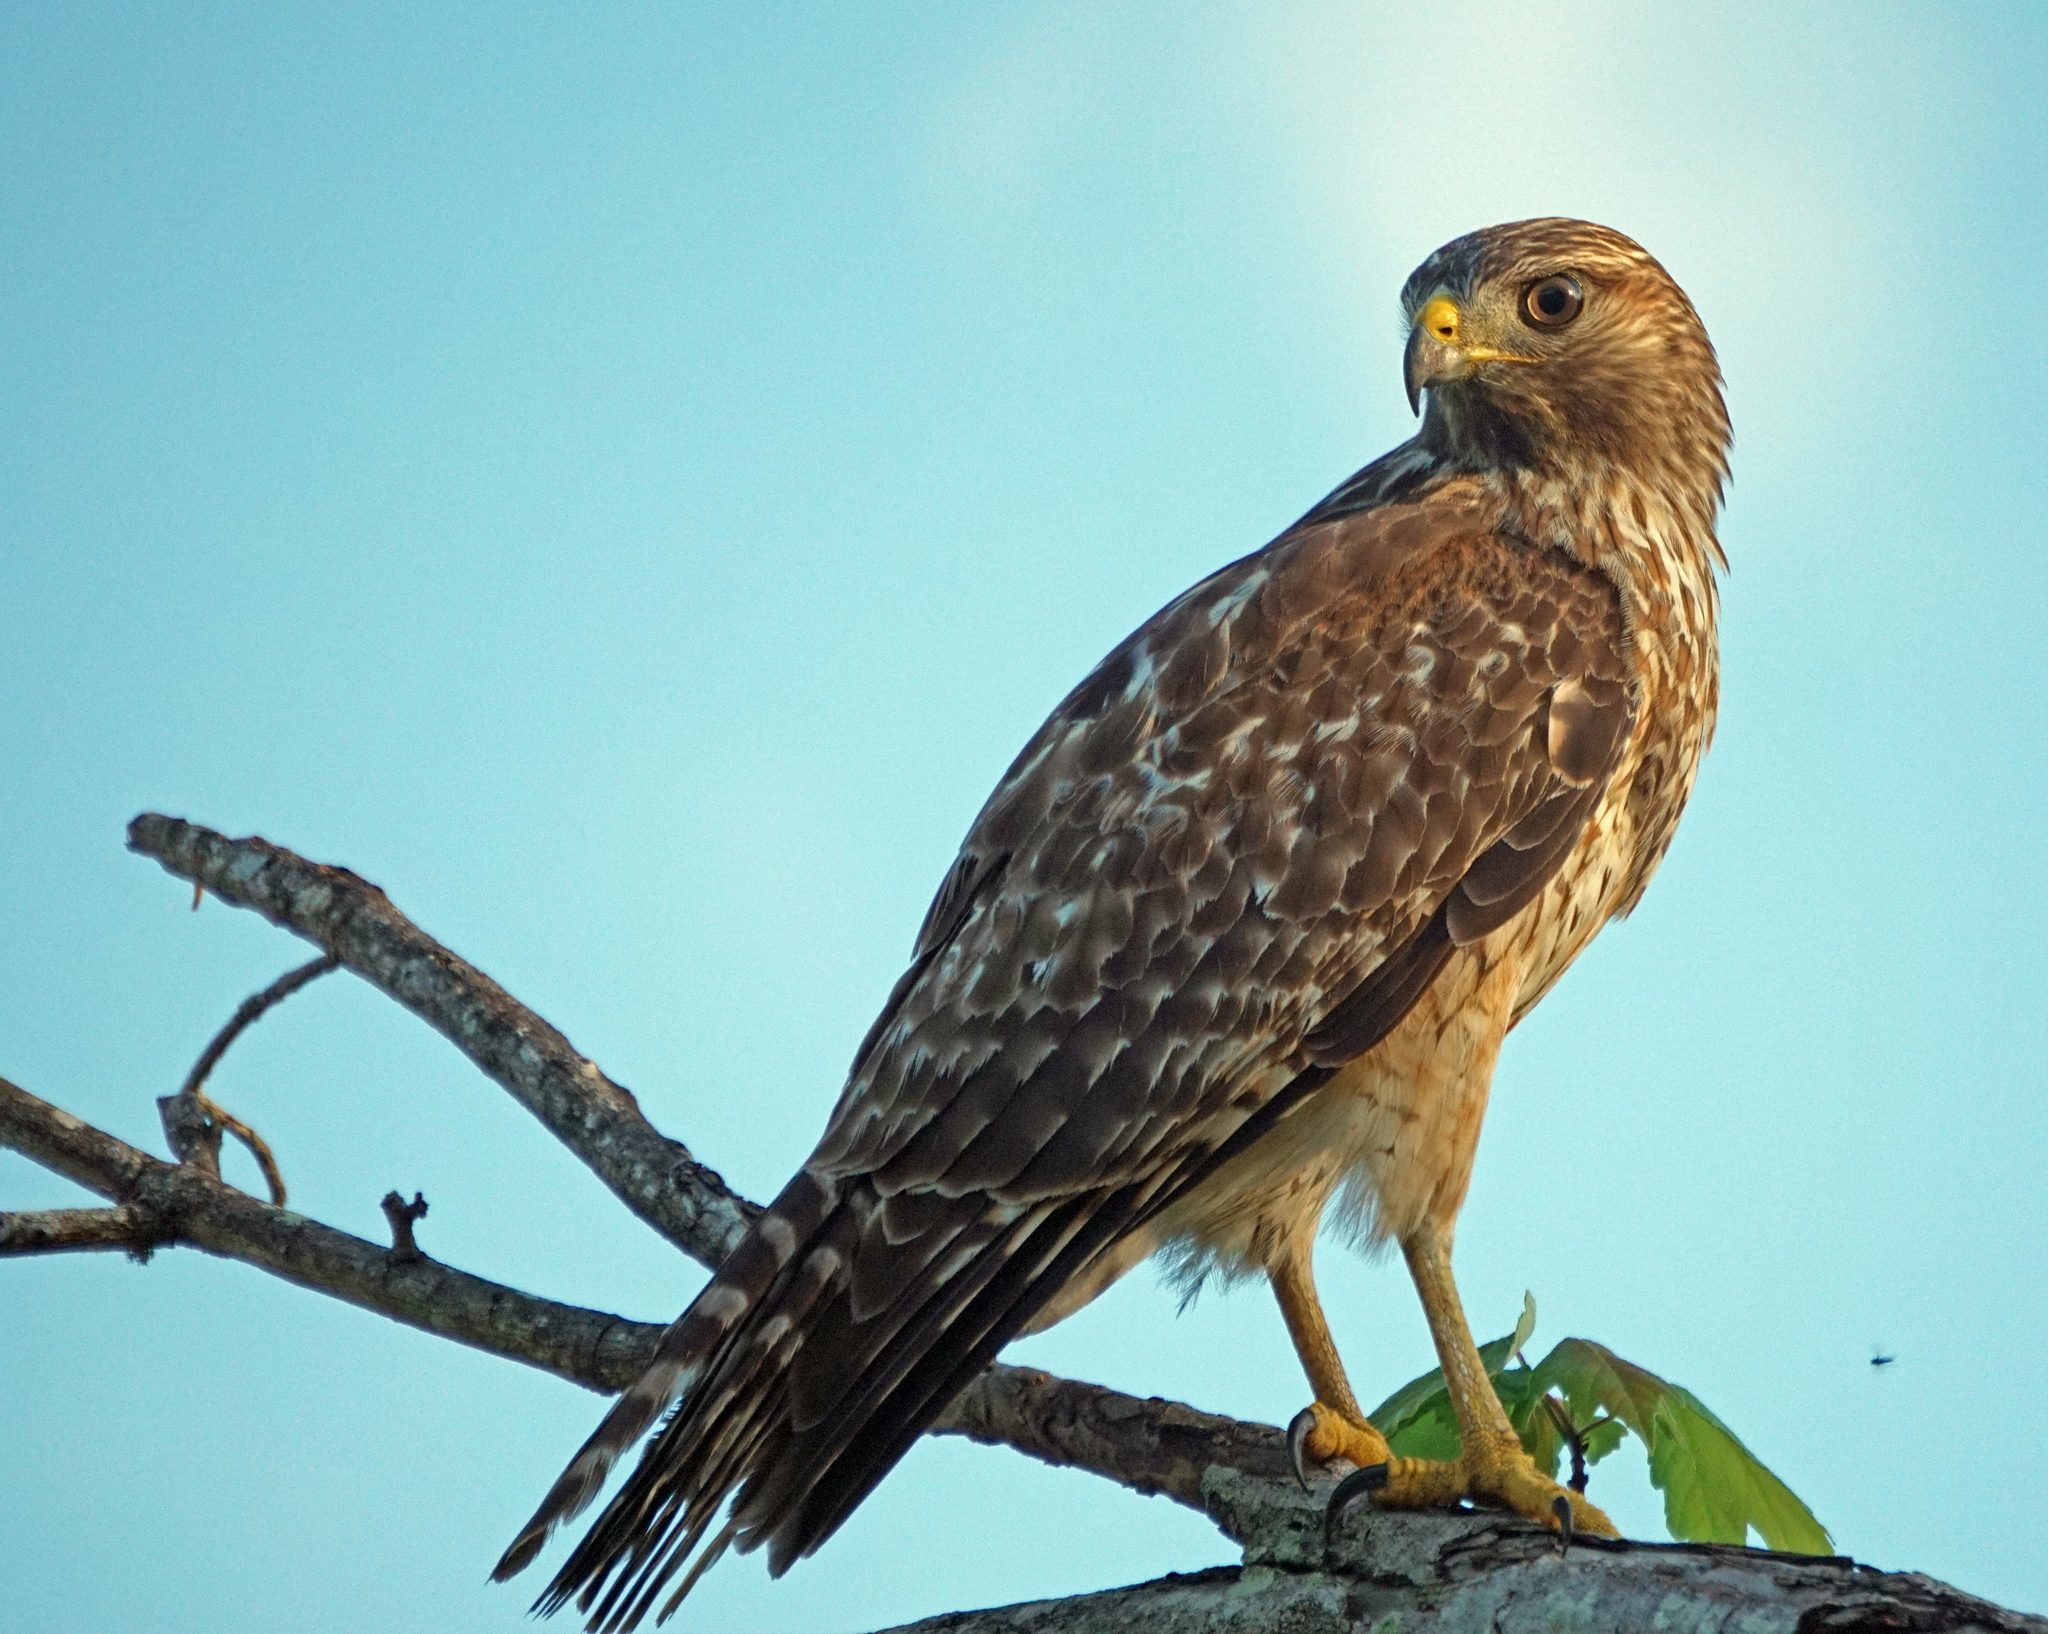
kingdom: Animalia
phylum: Chordata
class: Aves
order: Accipitriformes
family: Accipitridae
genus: Buteo
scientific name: Buteo lineatus
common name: Red-shouldered hawk
